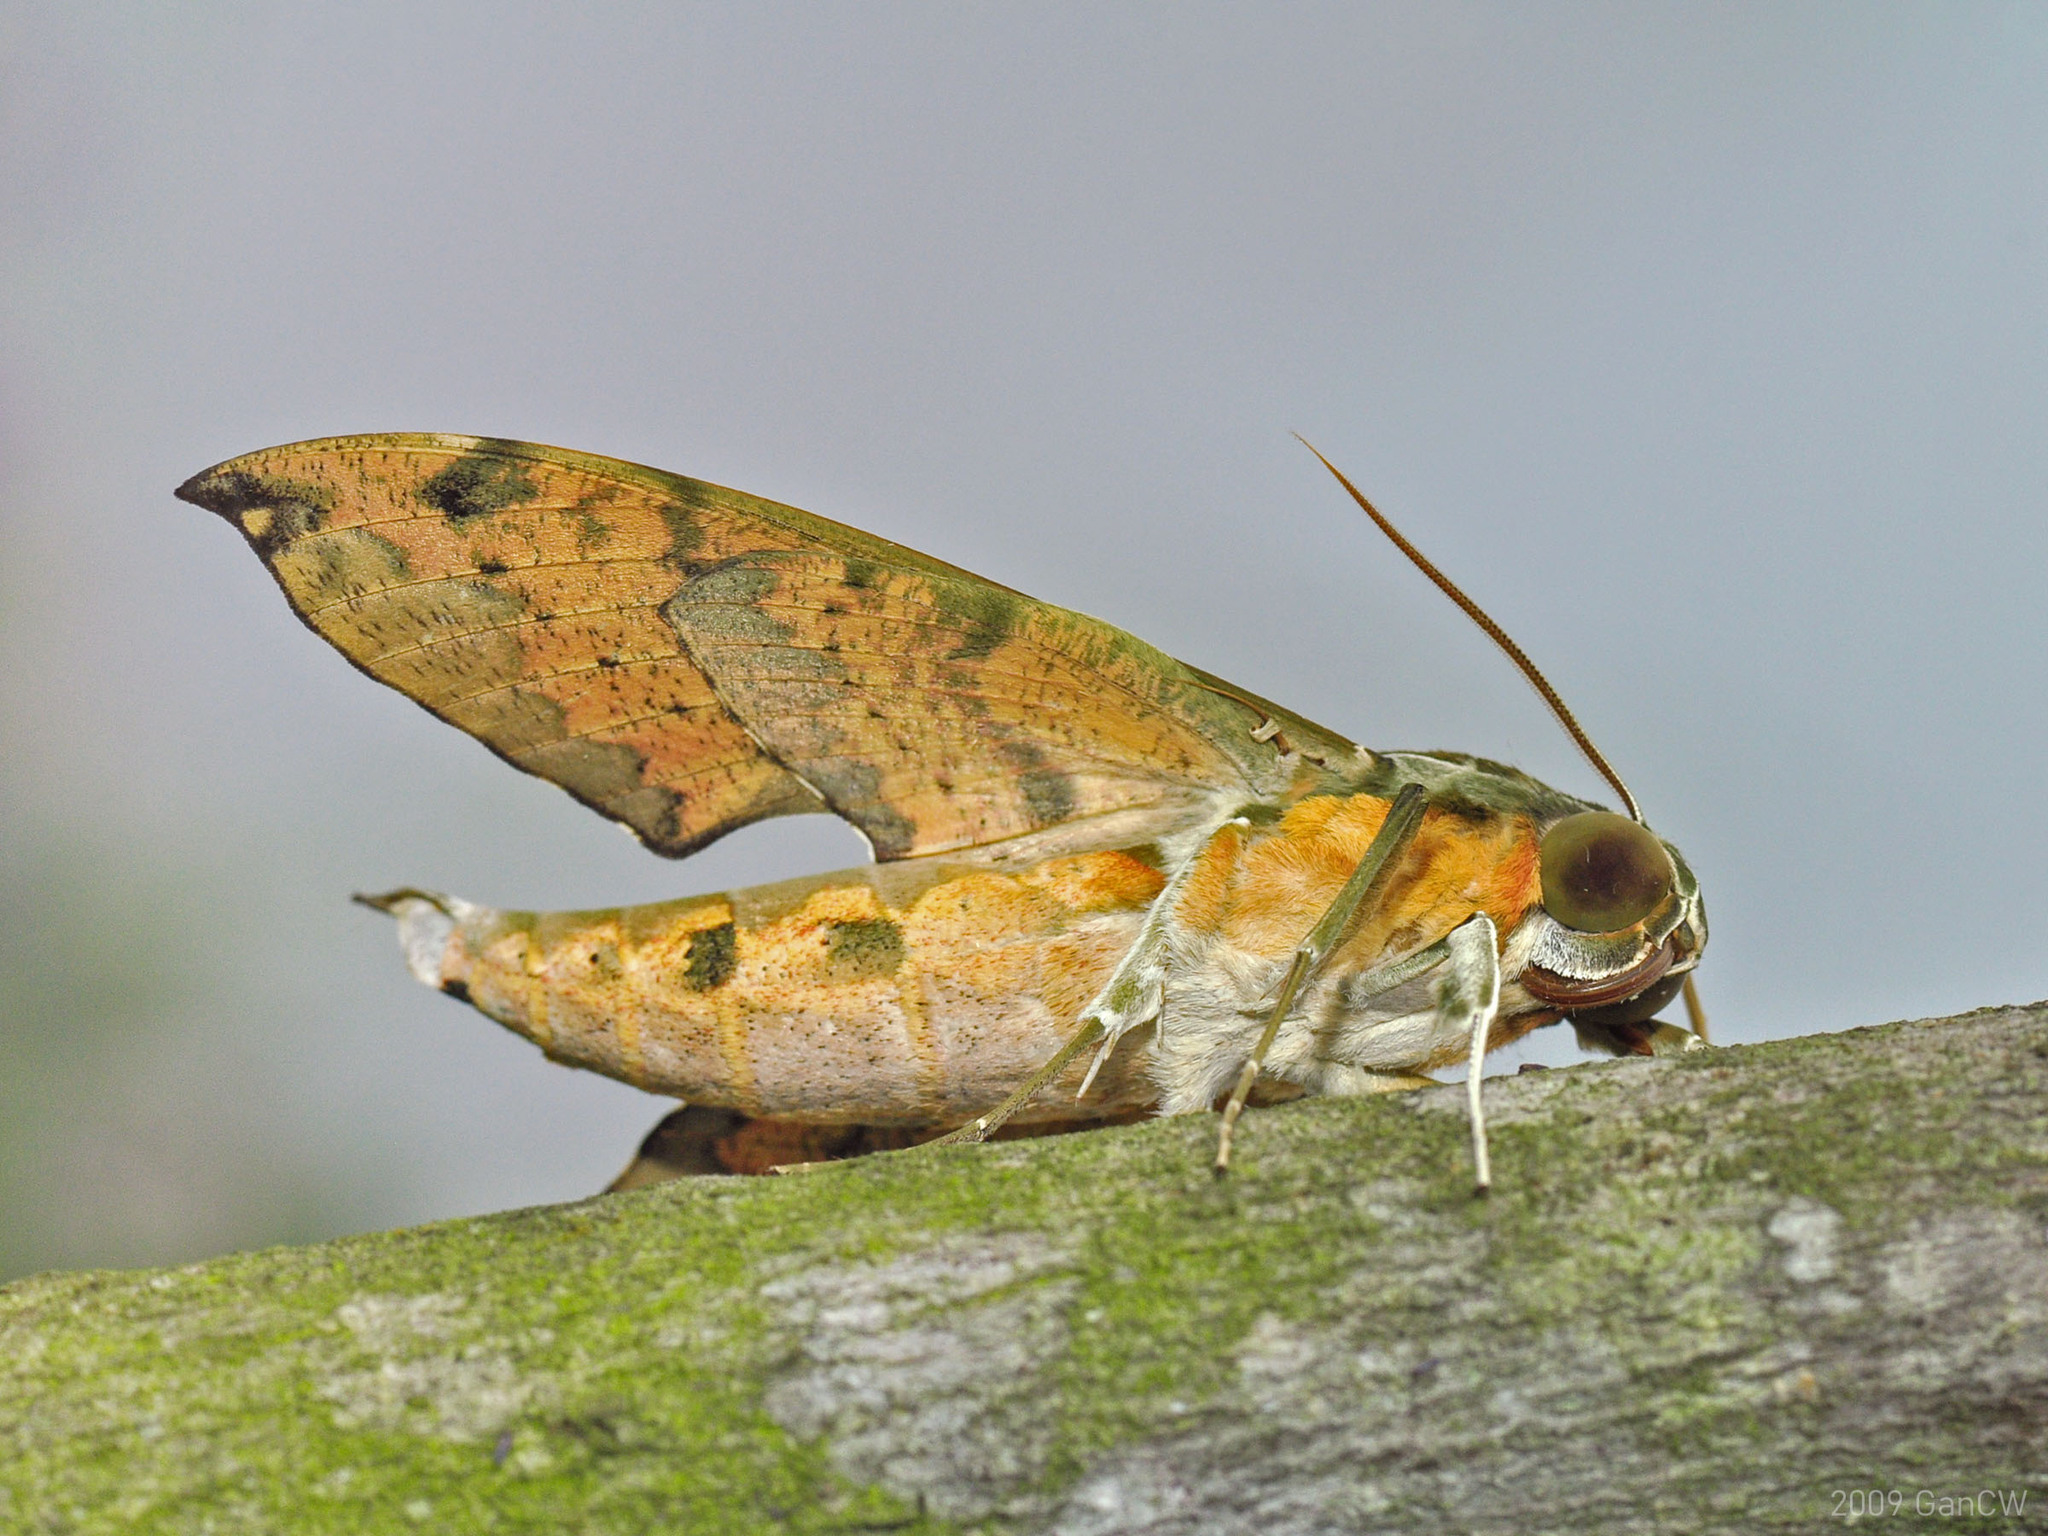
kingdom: Animalia
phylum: Arthropoda
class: Insecta
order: Lepidoptera
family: Sphingidae
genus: Cechenena
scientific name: Cechenena helops
